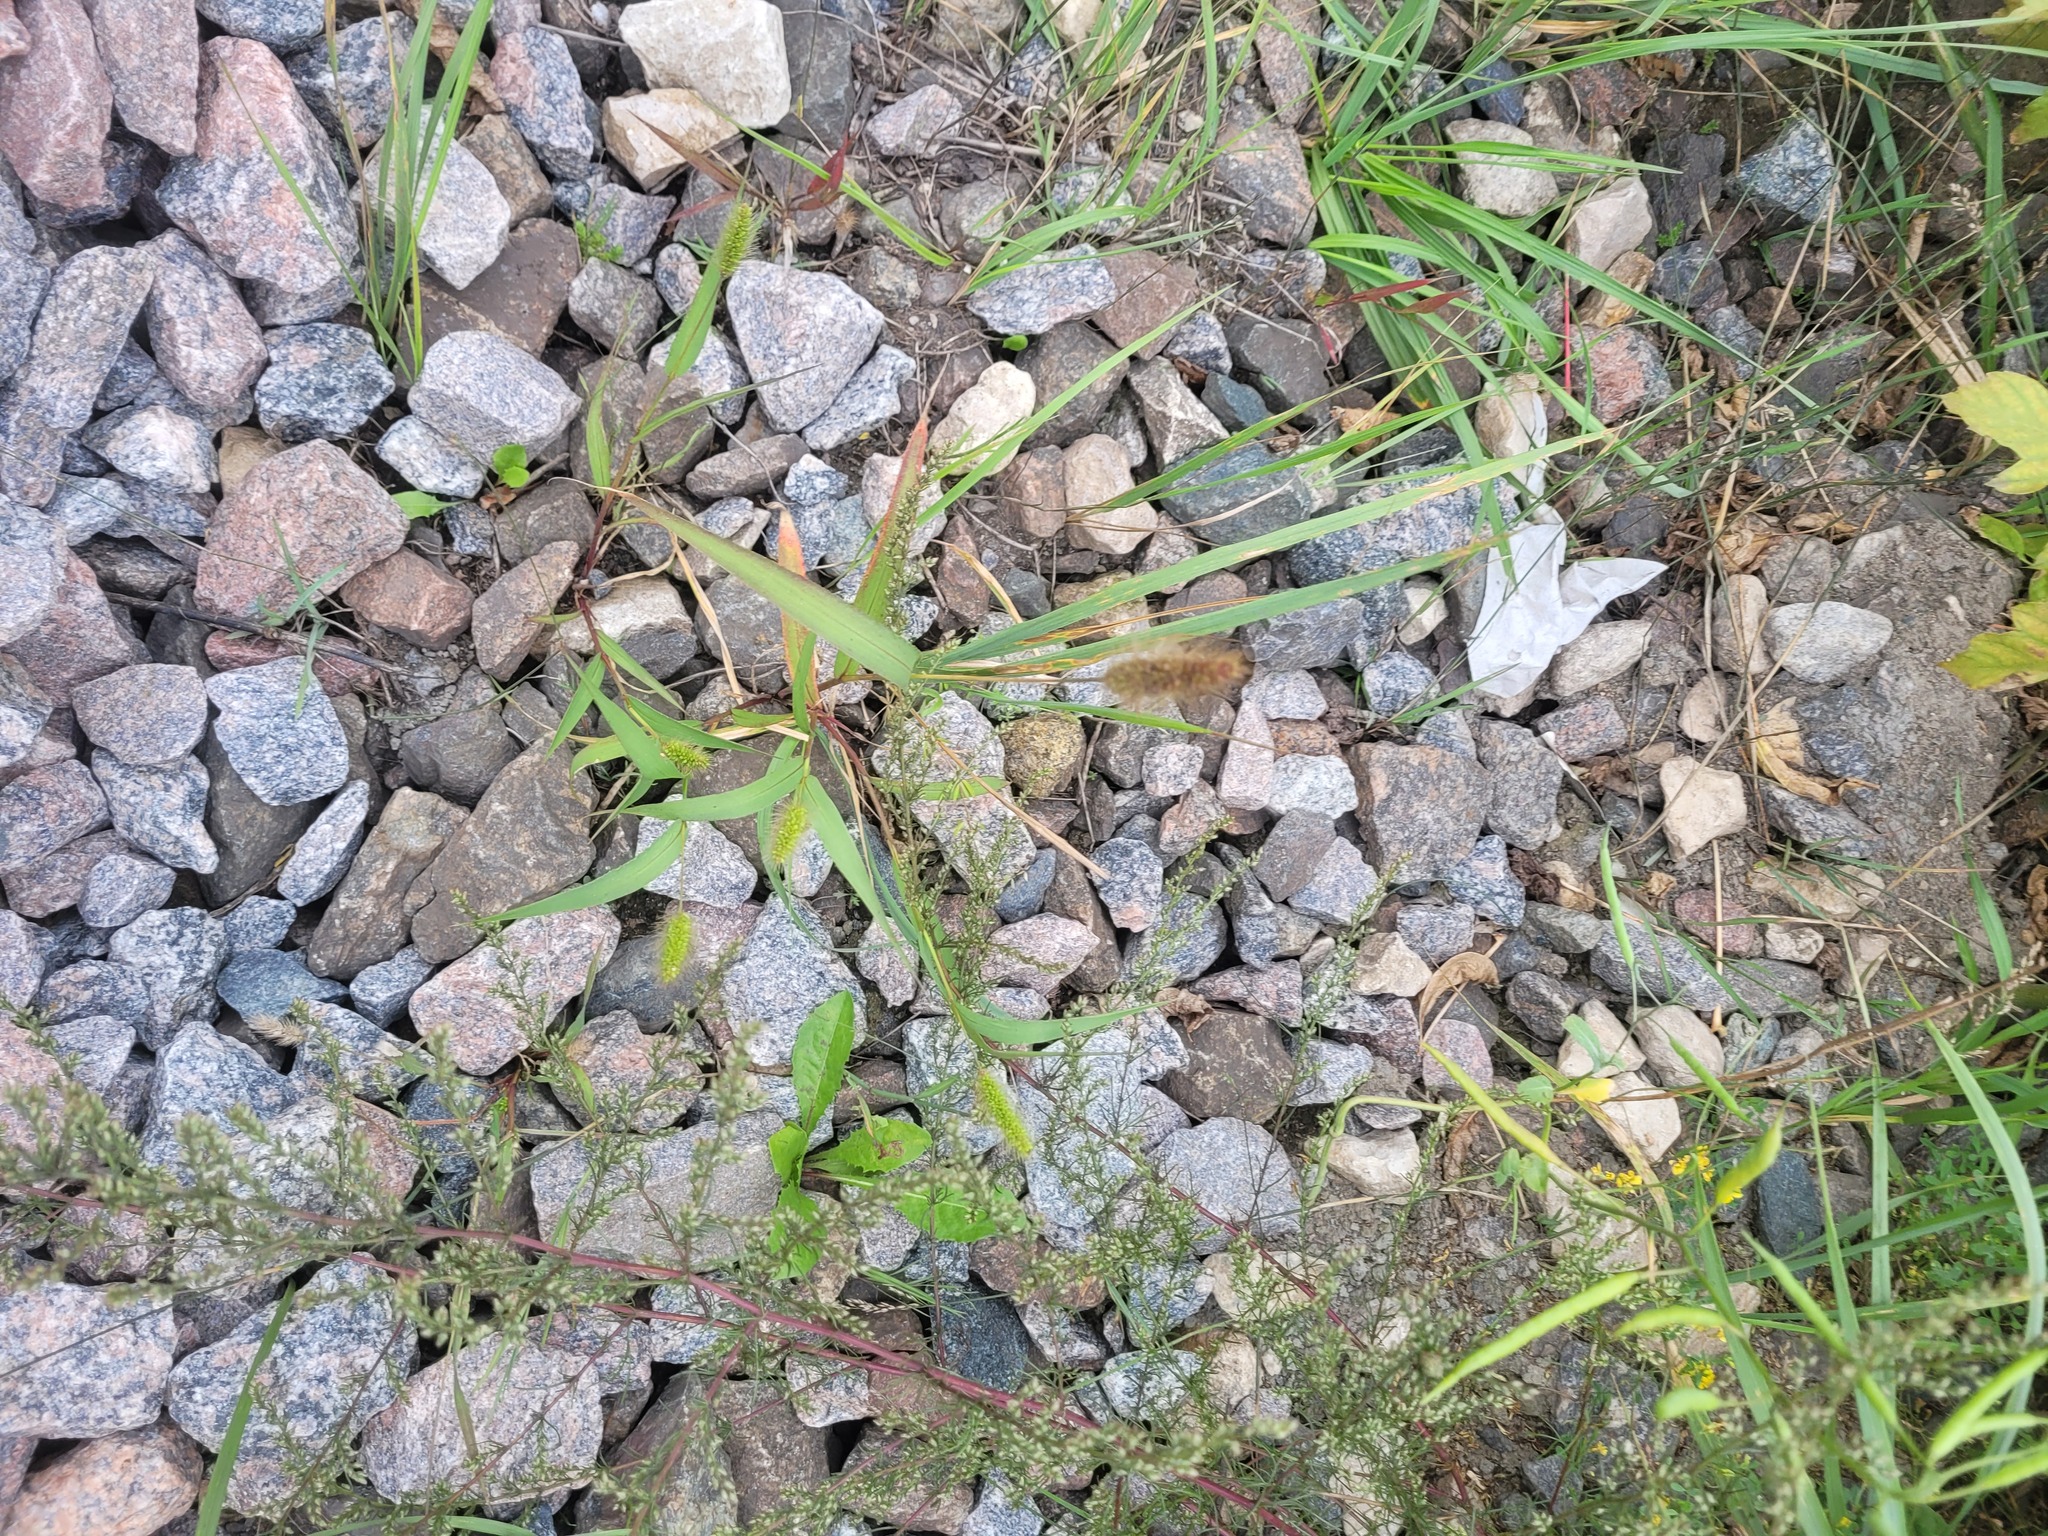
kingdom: Plantae
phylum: Tracheophyta
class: Liliopsida
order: Poales
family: Poaceae
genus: Setaria
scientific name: Setaria viridis
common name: Green bristlegrass
